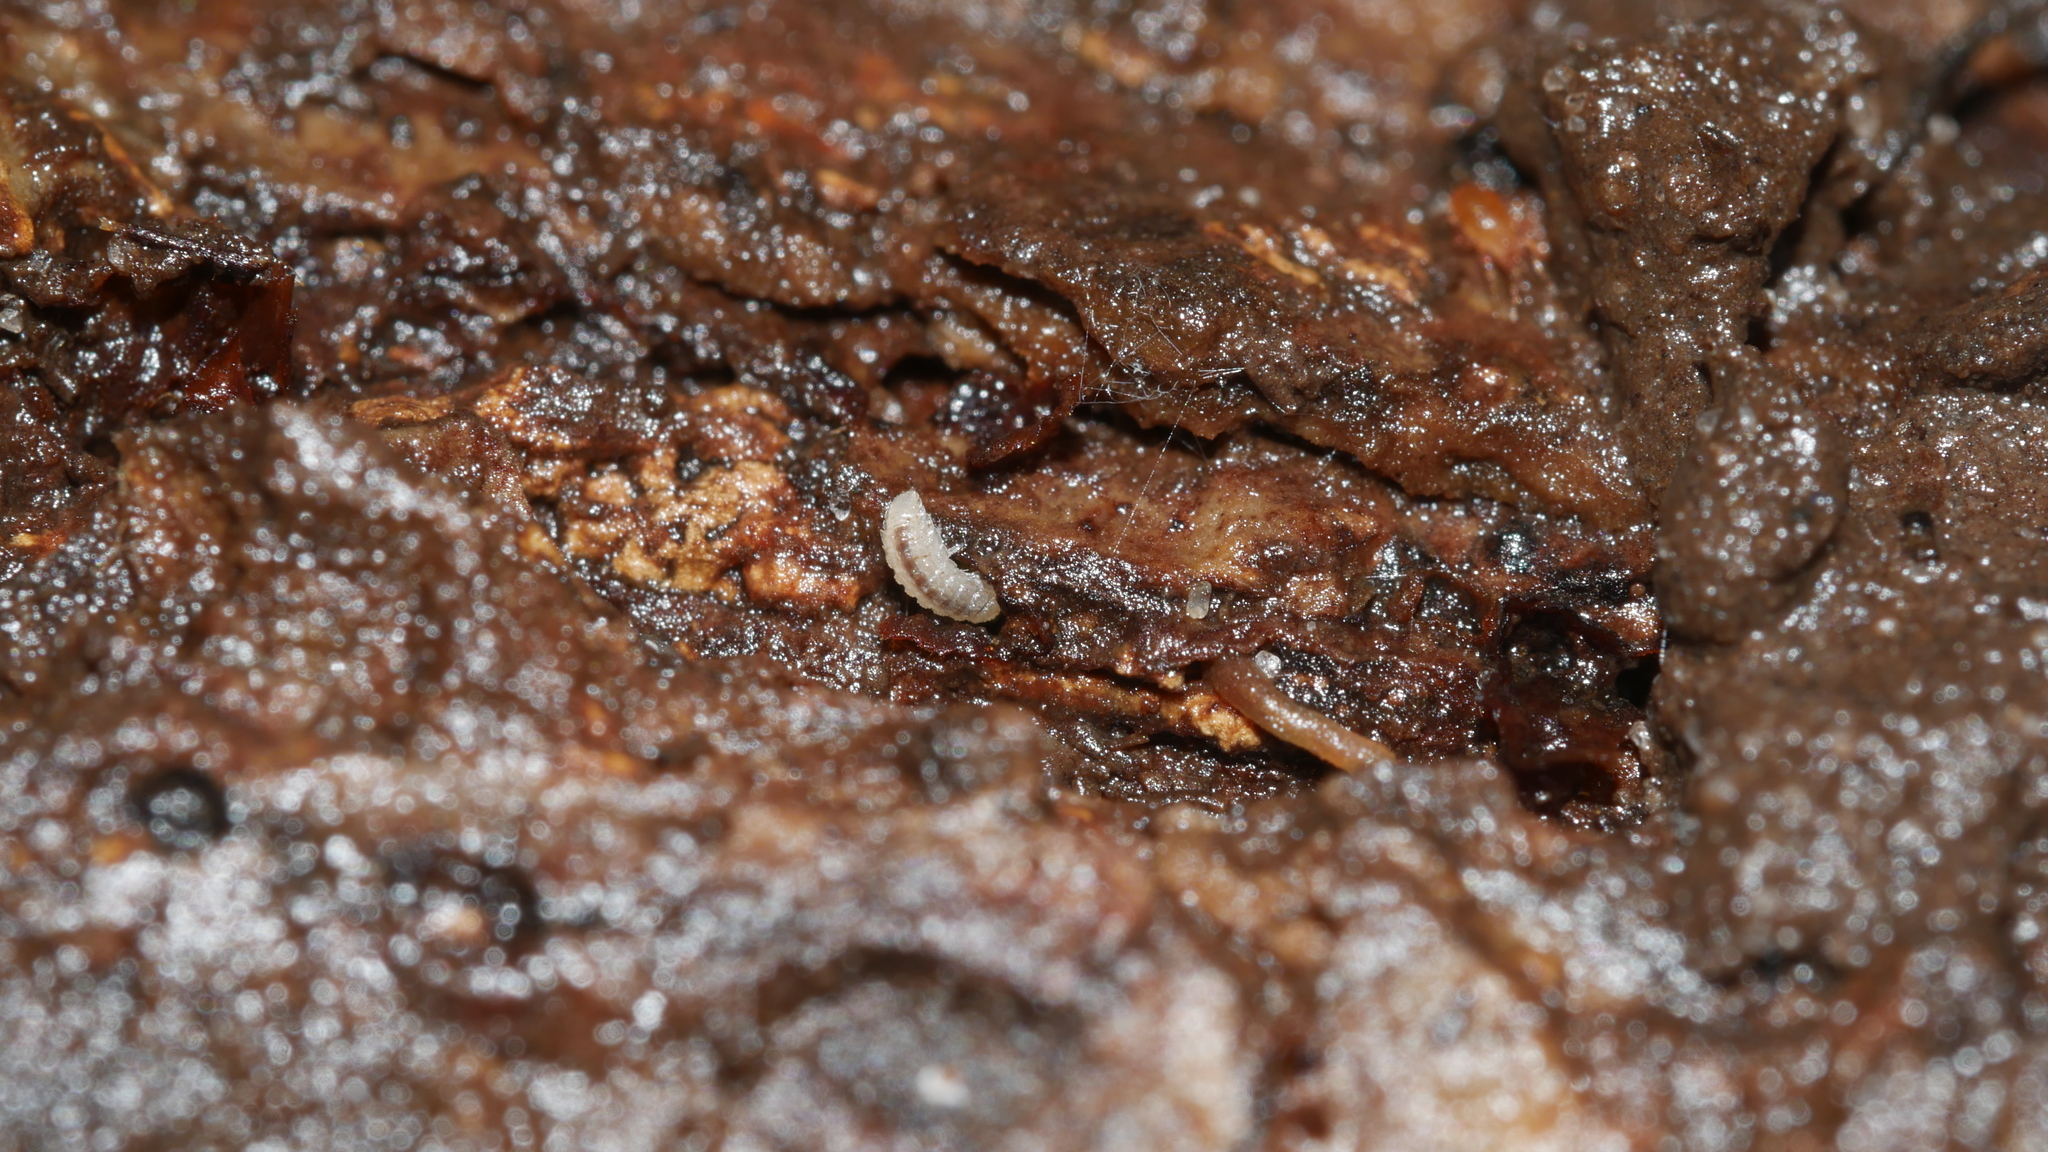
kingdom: Animalia
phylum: Arthropoda
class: Malacostraca
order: Isopoda
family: Trichoniscidae
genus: Haplophthalmus
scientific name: Haplophthalmus danicus
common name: Pillbug
